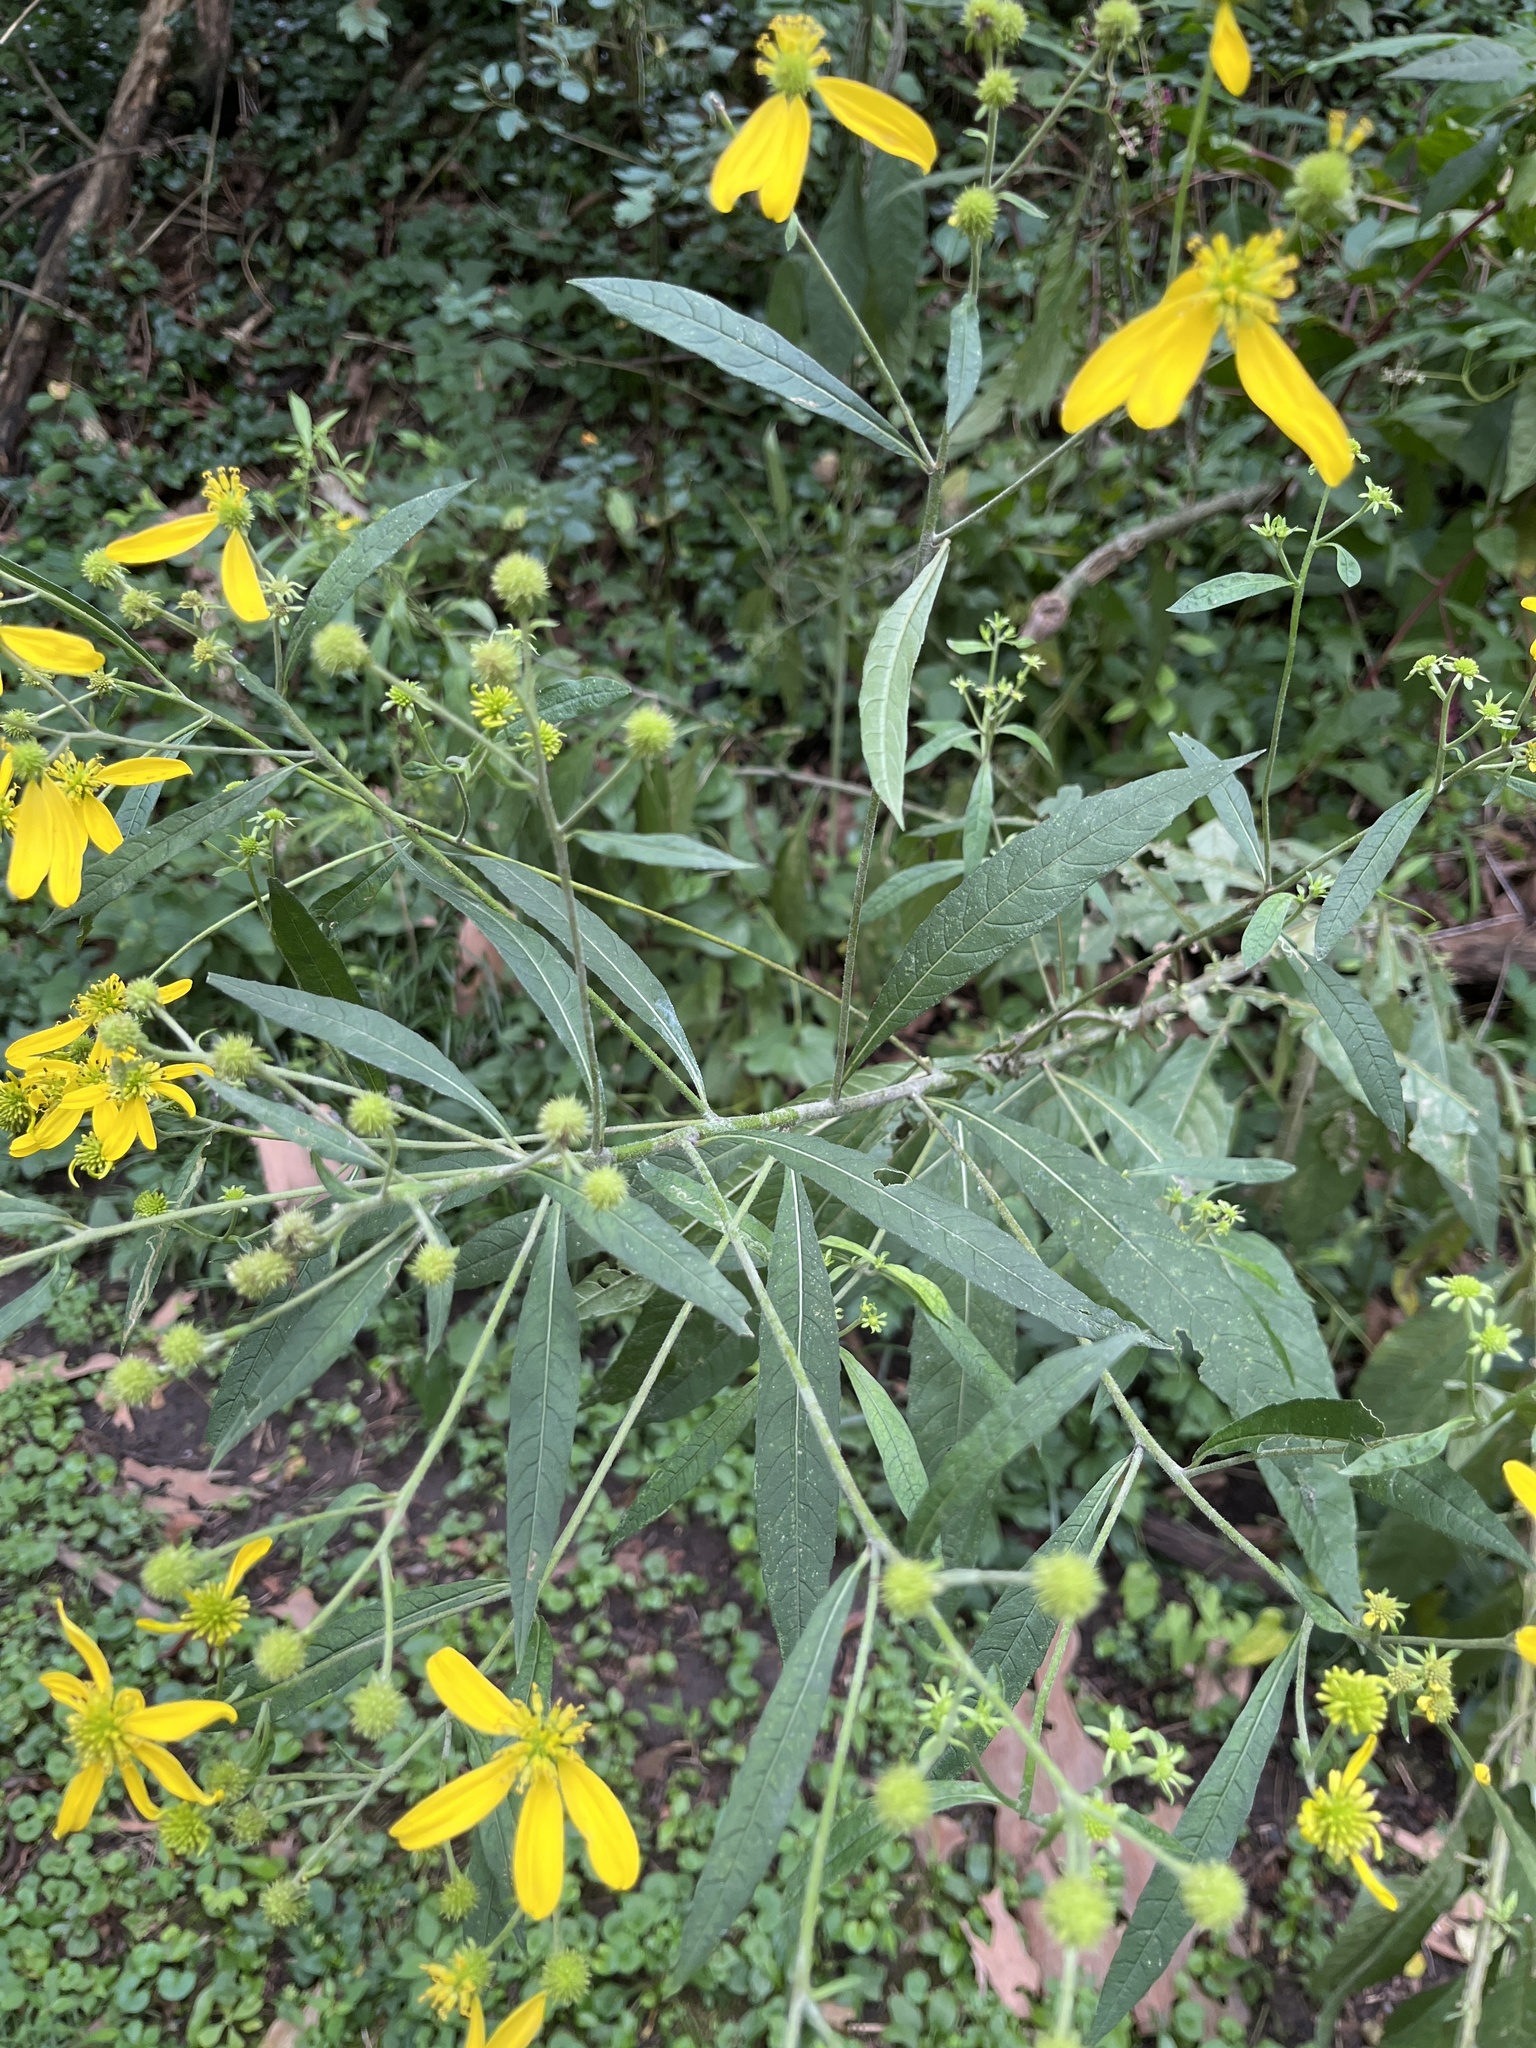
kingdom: Plantae
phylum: Tracheophyta
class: Magnoliopsida
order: Asterales
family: Asteraceae
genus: Verbesina
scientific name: Verbesina alternifolia
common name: Wingstem
